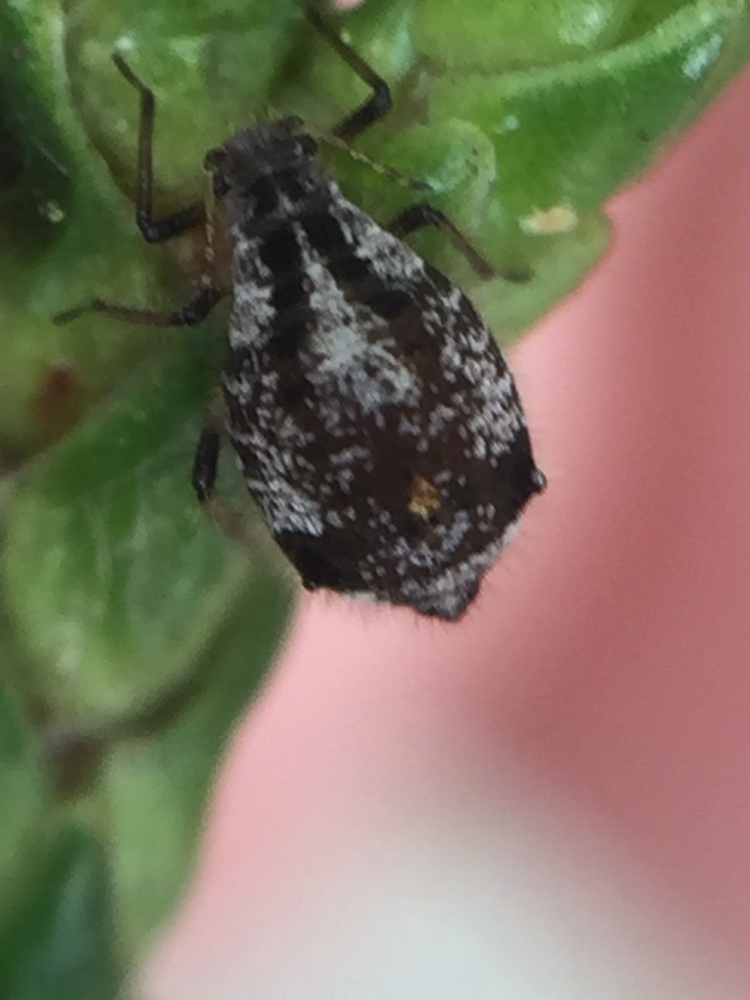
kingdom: Animalia
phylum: Arthropoda
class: Insecta
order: Hemiptera
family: Aphididae
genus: Cinara
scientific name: Cinara fresai
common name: Juniper aphid
